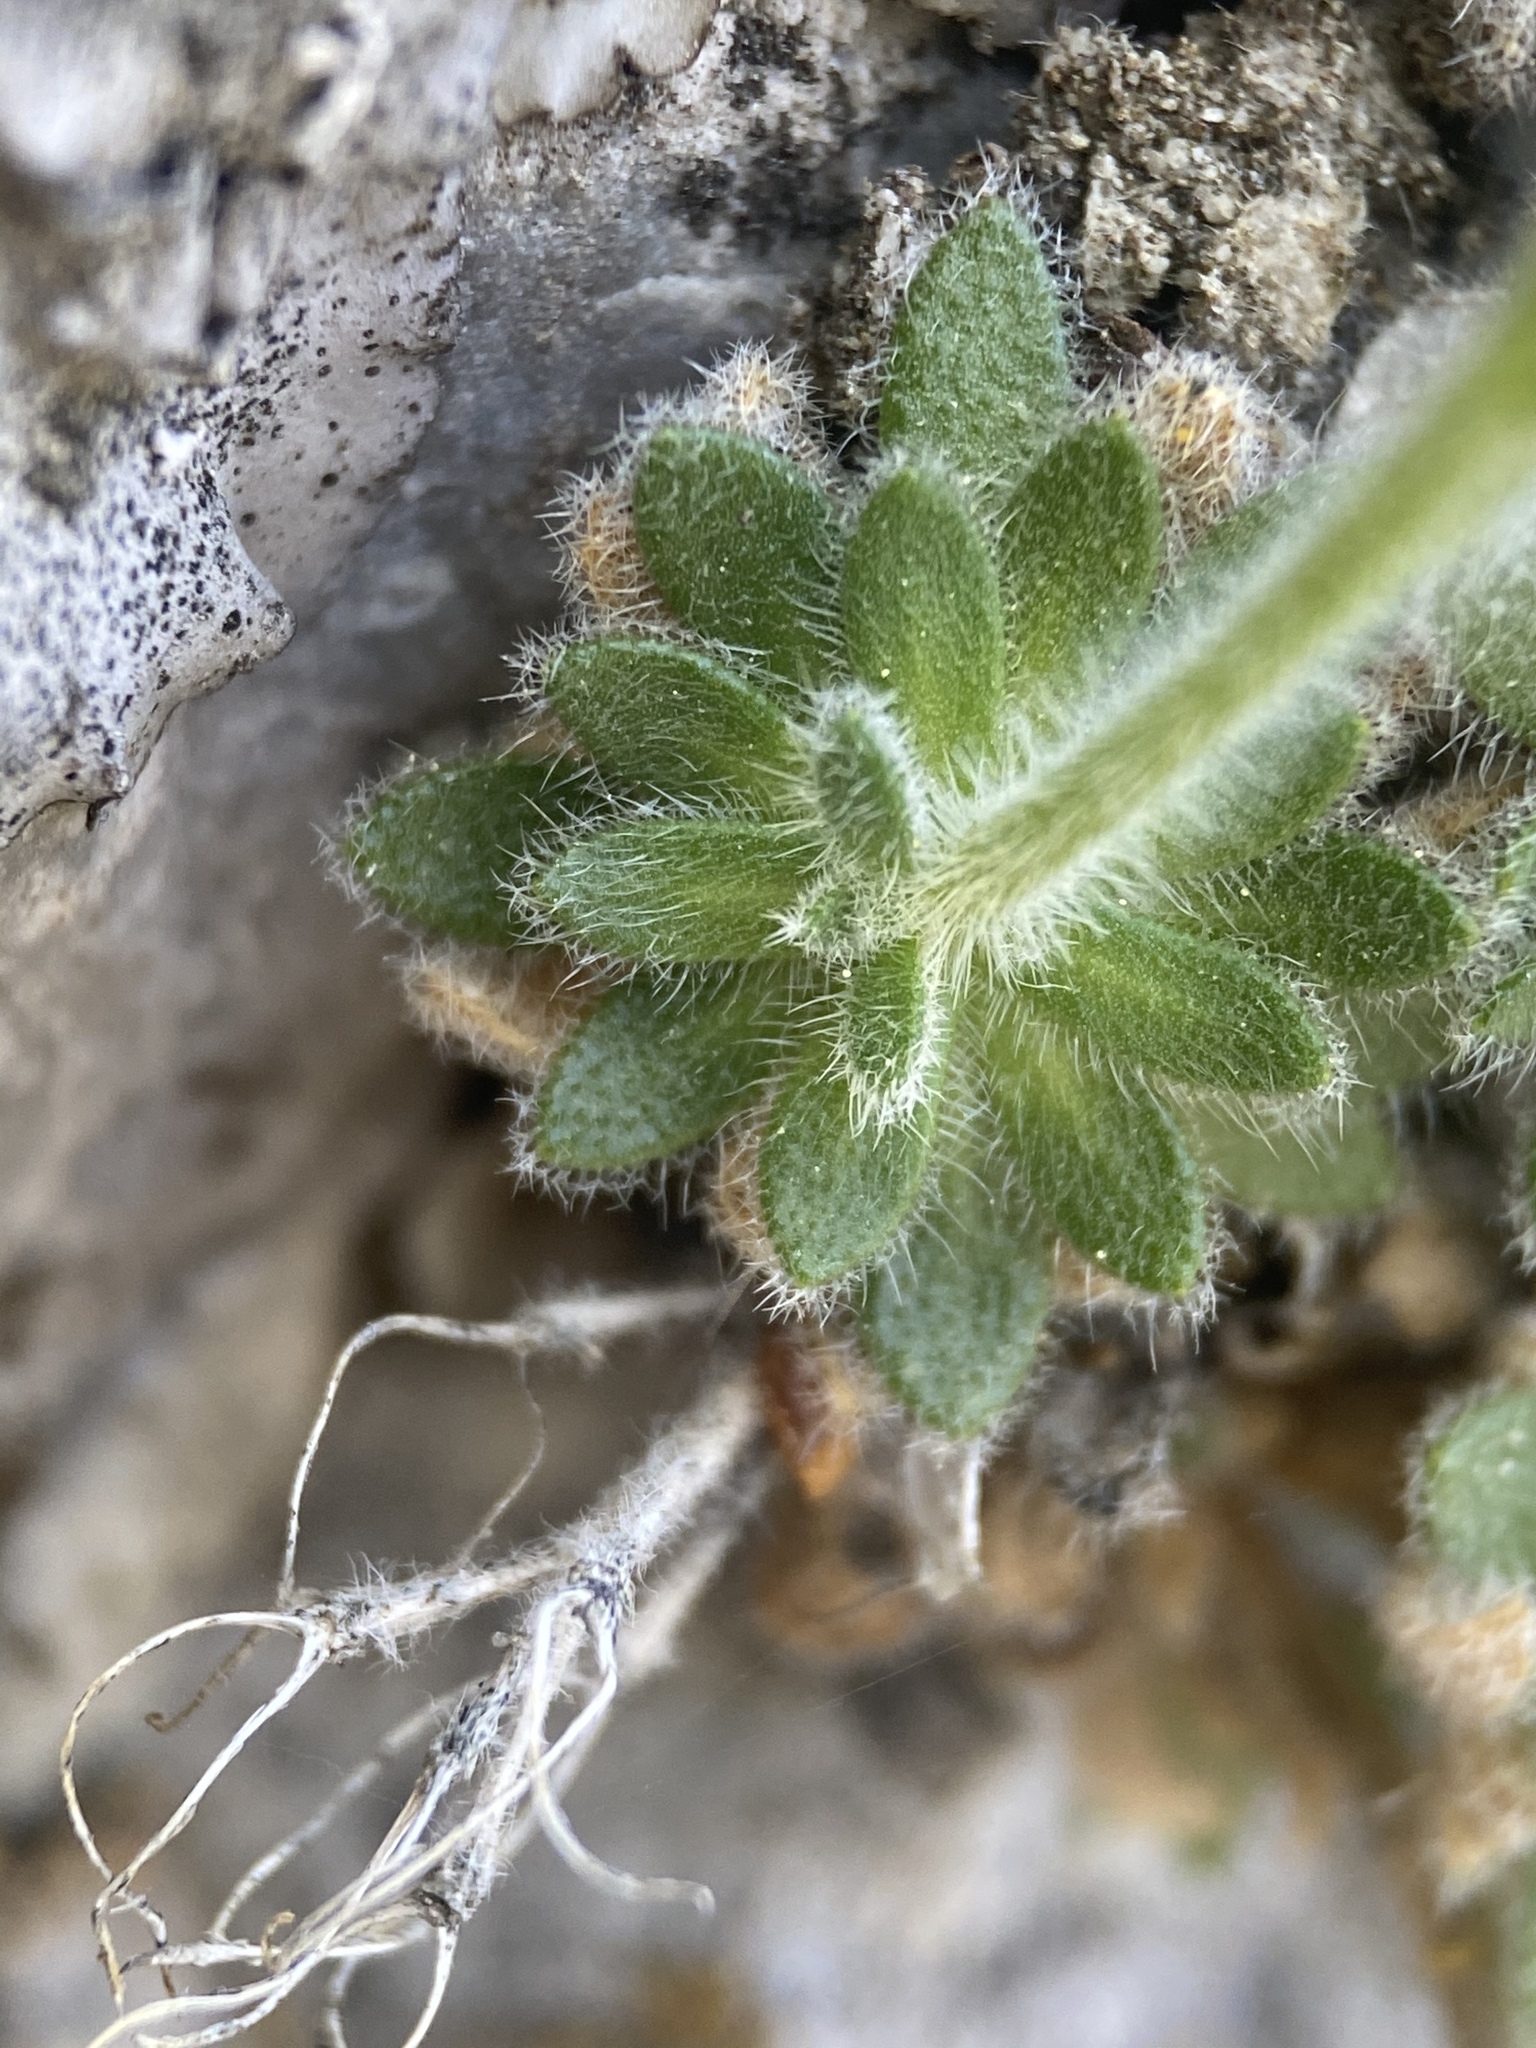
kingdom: Plantae
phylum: Tracheophyta
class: Magnoliopsida
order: Brassicales
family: Brassicaceae
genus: Draba
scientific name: Draba jaegeri
